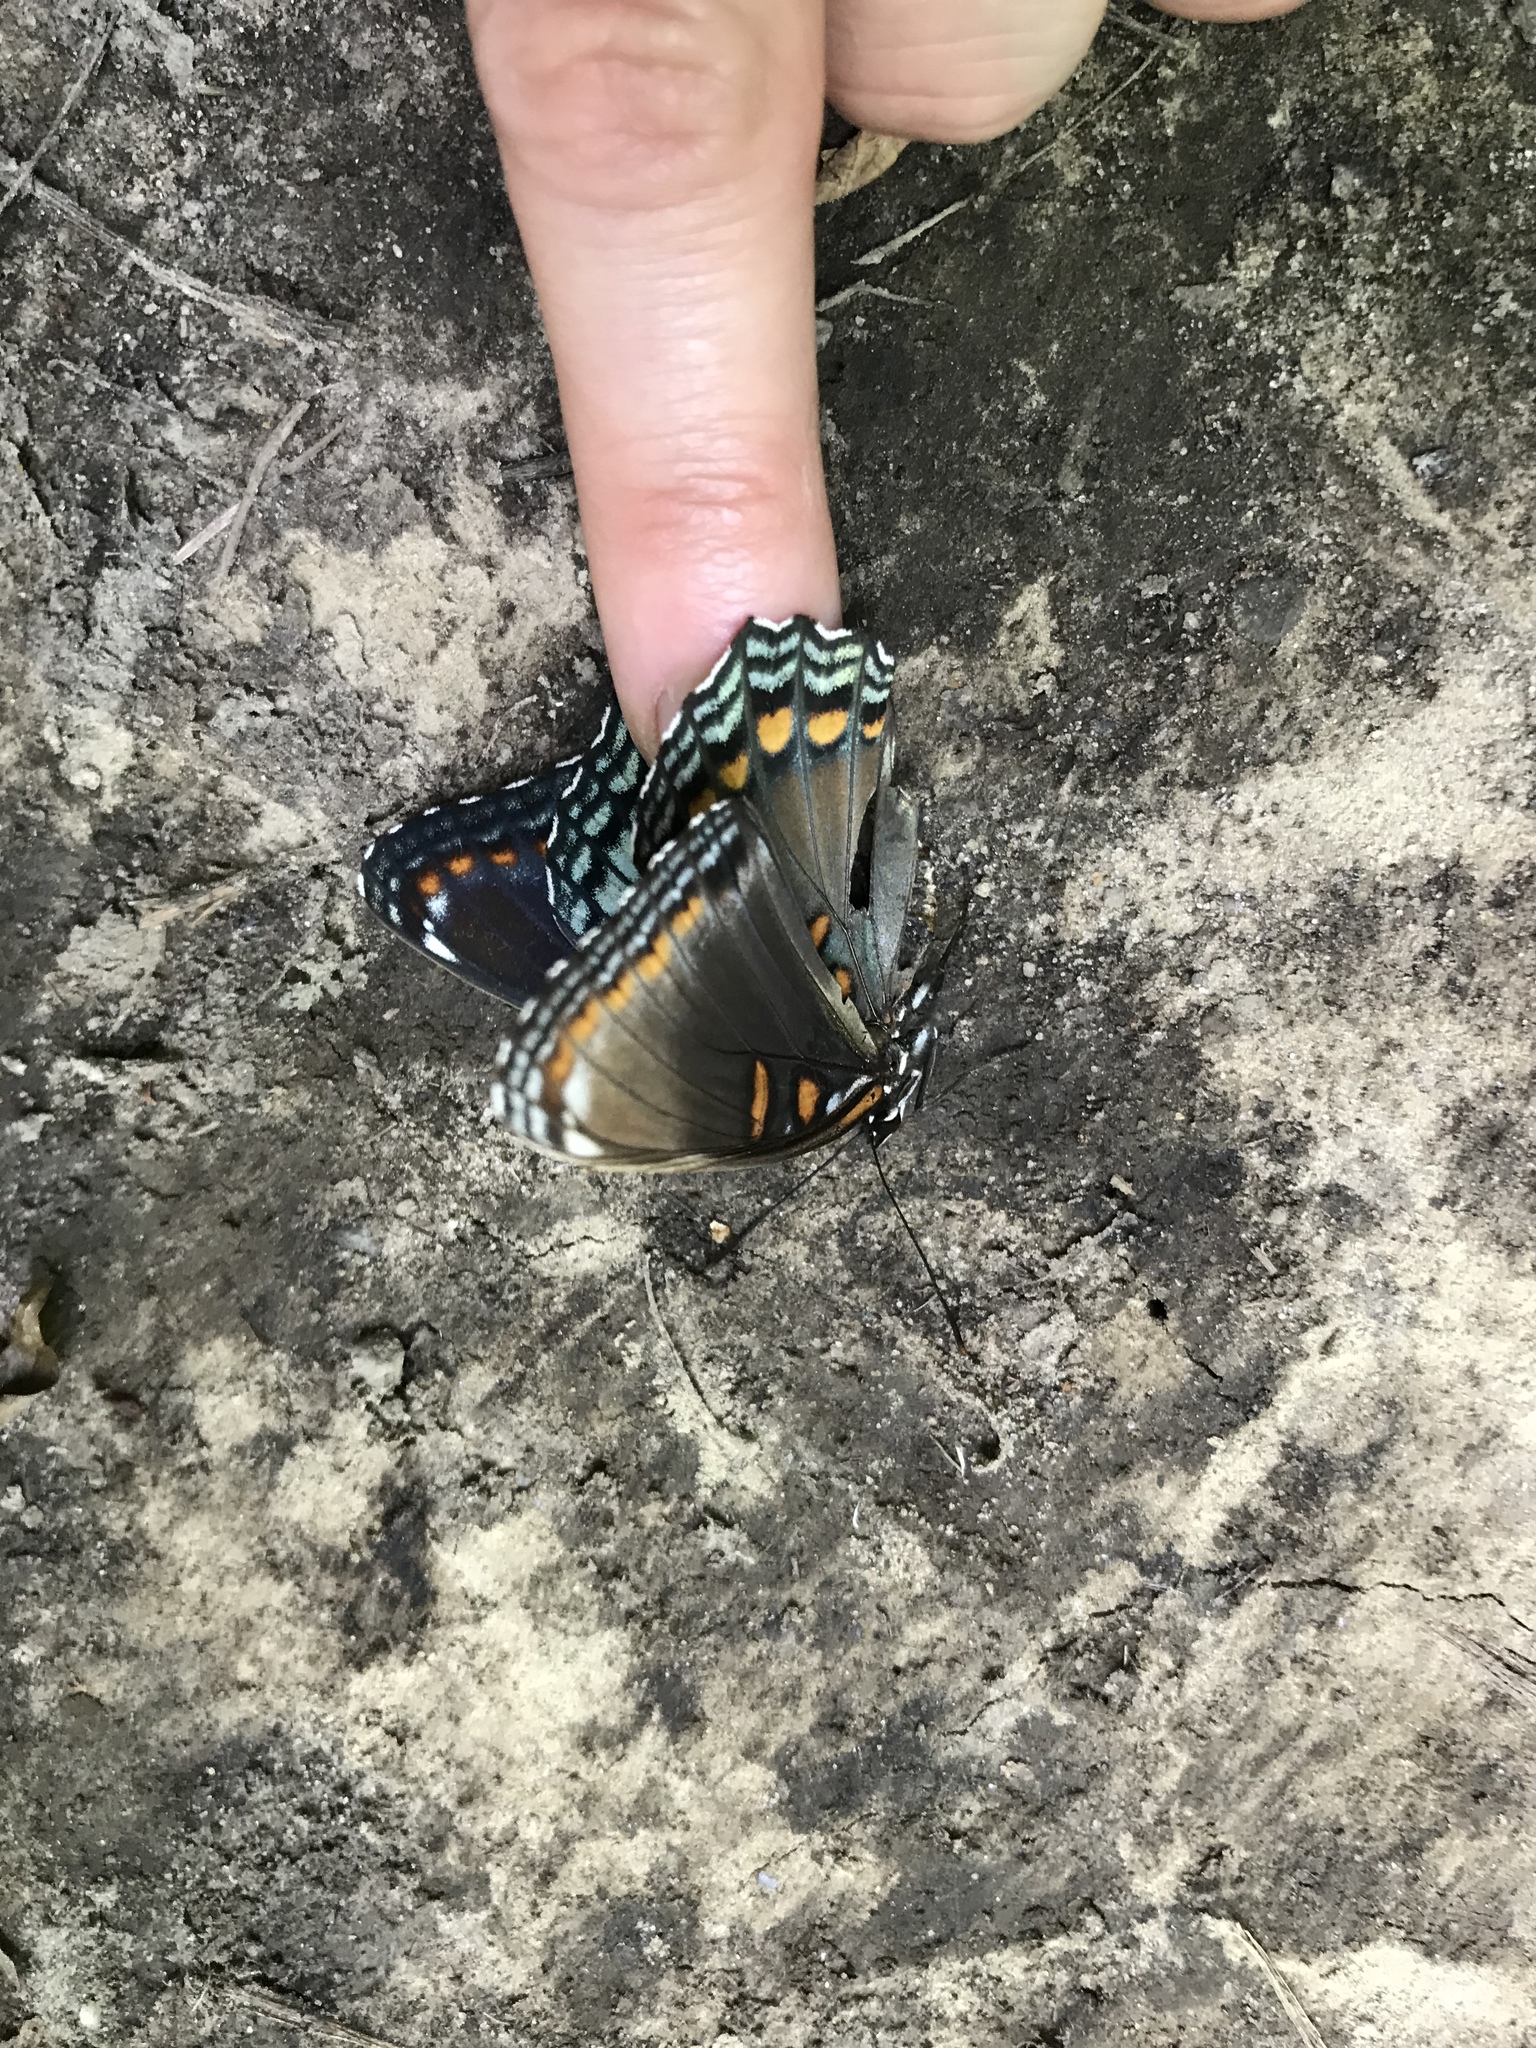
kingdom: Animalia
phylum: Arthropoda
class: Insecta
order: Lepidoptera
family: Nymphalidae
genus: Limenitis
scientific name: Limenitis astyanax
